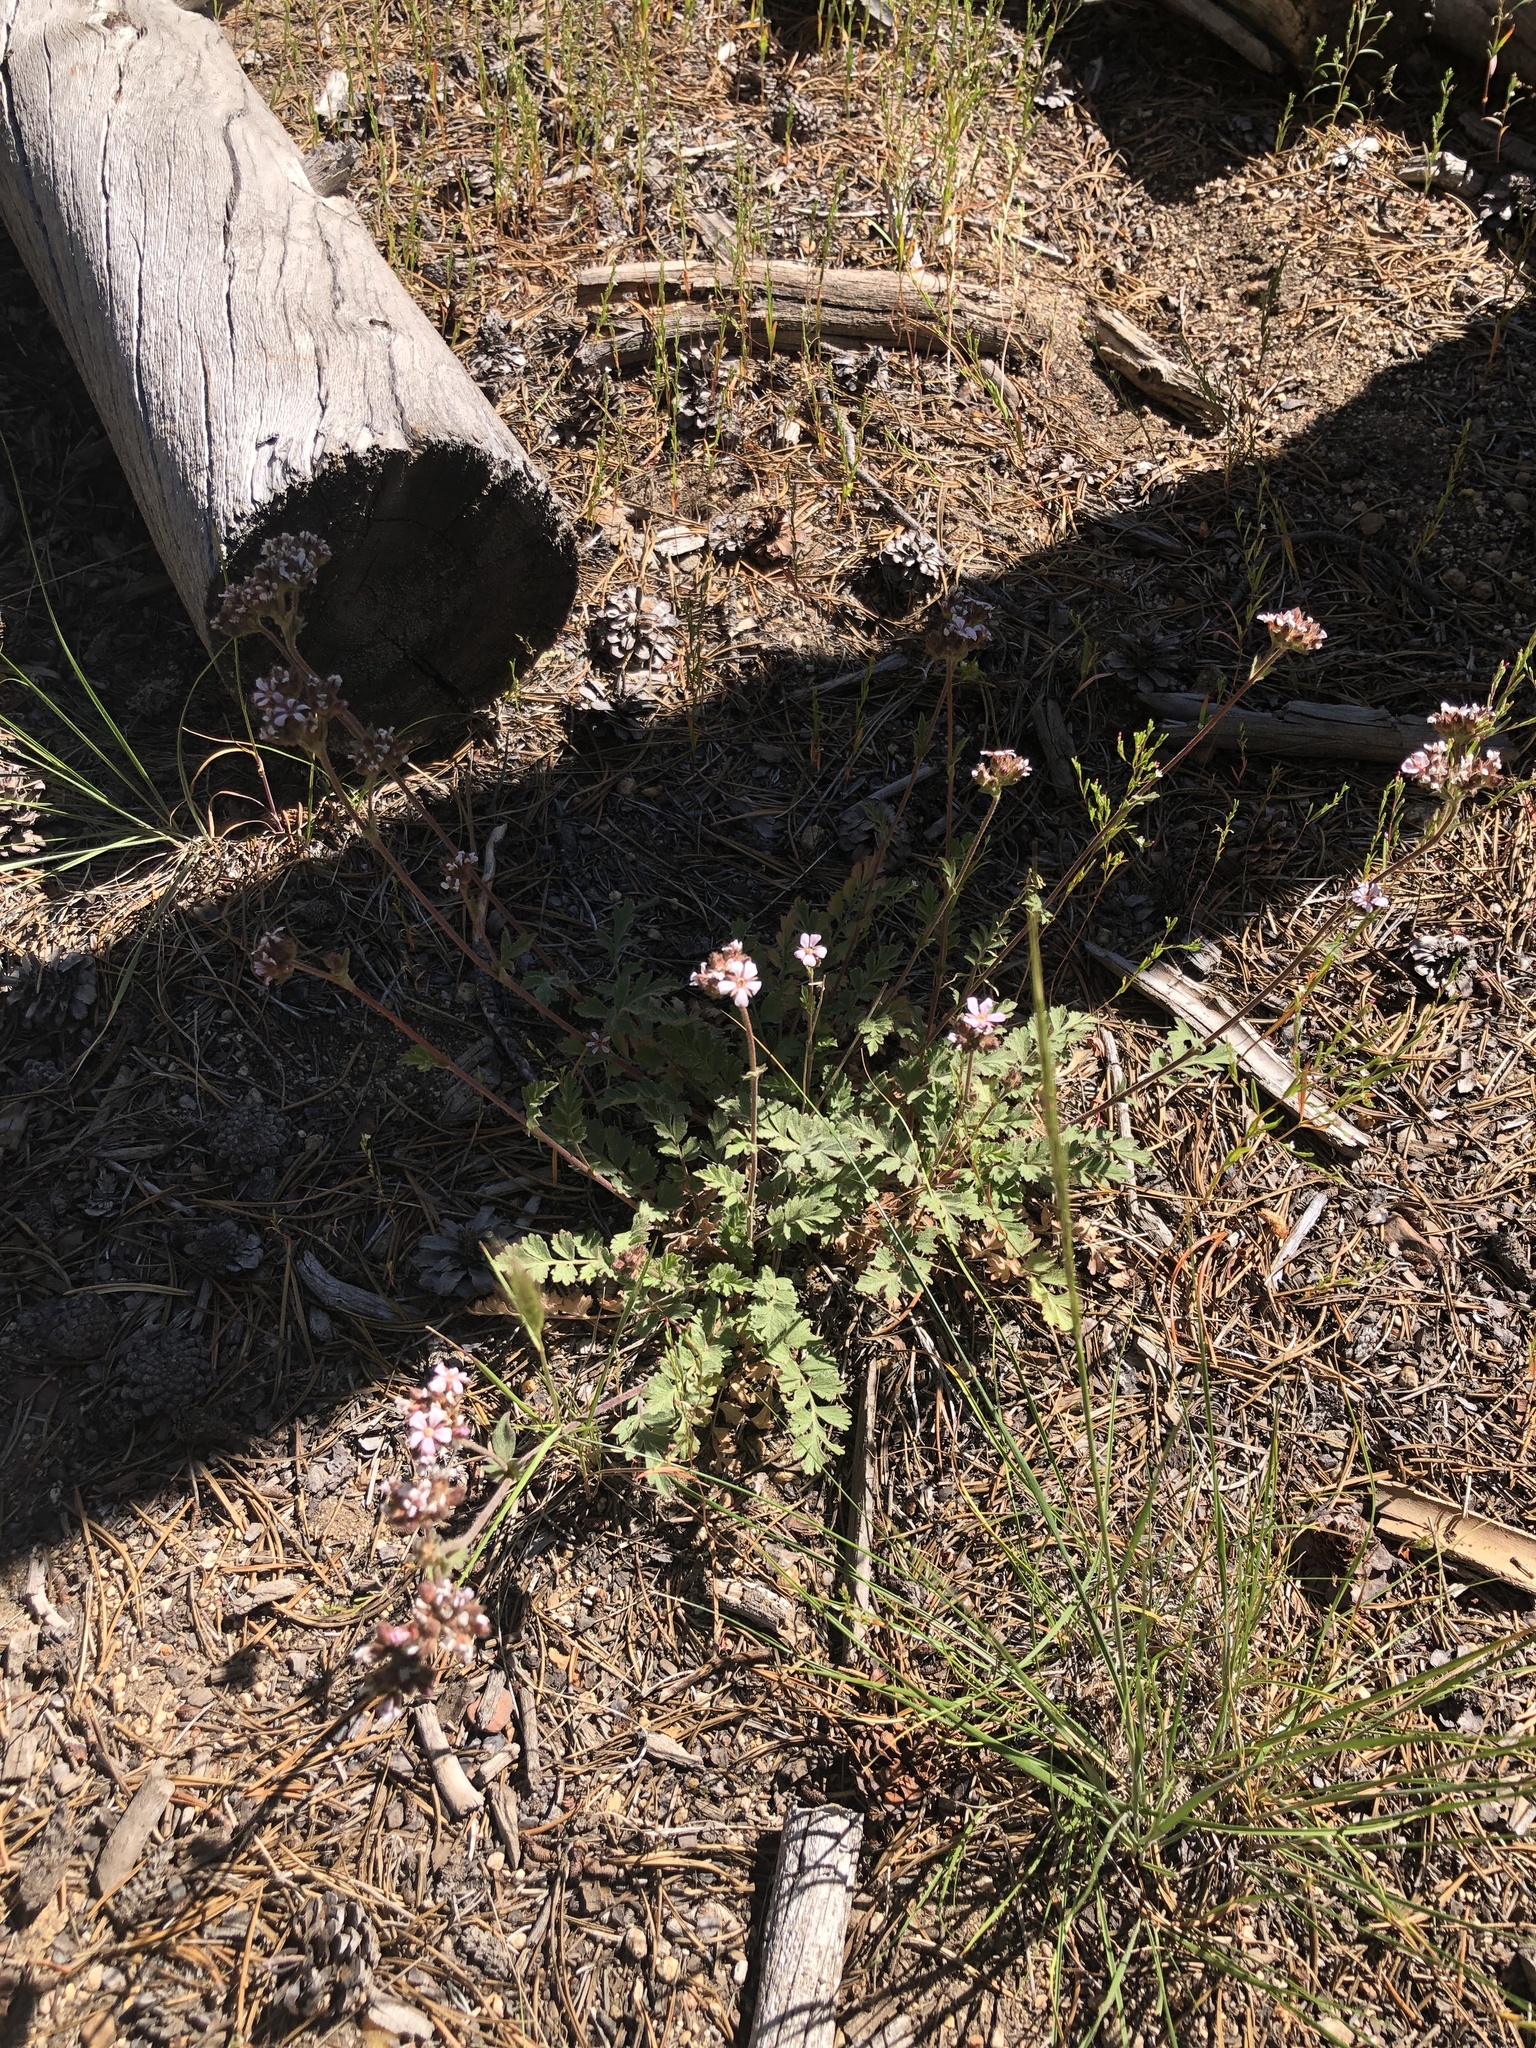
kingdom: Plantae
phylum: Tracheophyta
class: Magnoliopsida
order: Rosales
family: Rosaceae
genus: Potentilla
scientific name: Potentilla douglasii
